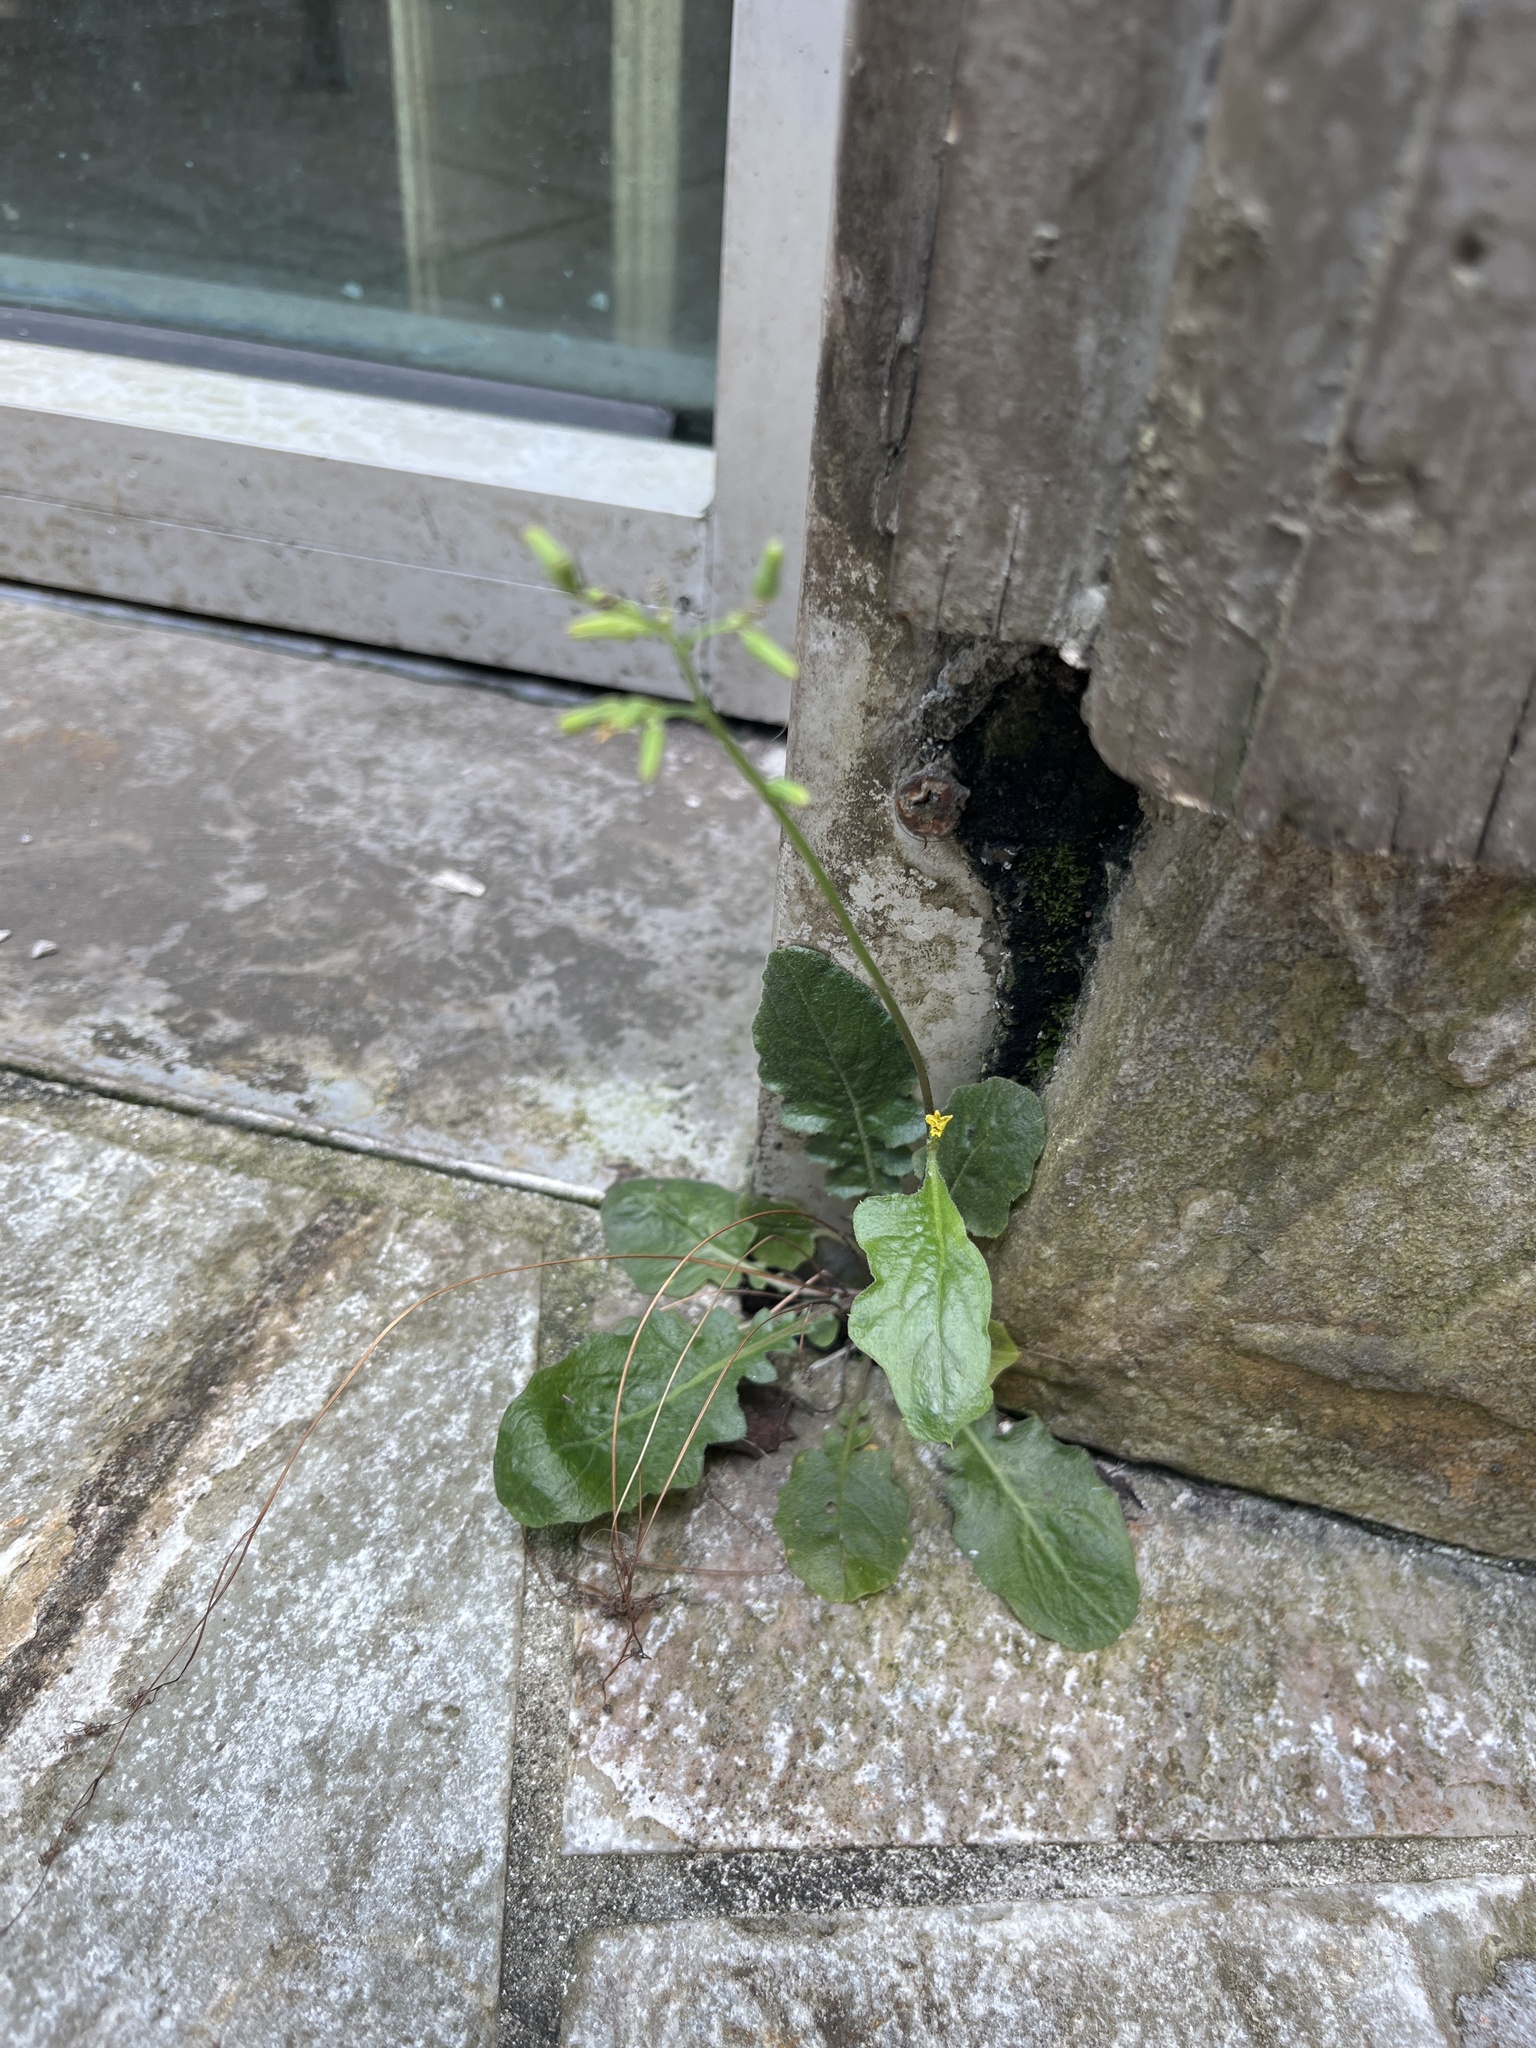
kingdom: Plantae
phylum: Tracheophyta
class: Magnoliopsida
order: Asterales
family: Asteraceae
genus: Youngia
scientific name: Youngia japonica
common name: Oriental false hawksbeard
